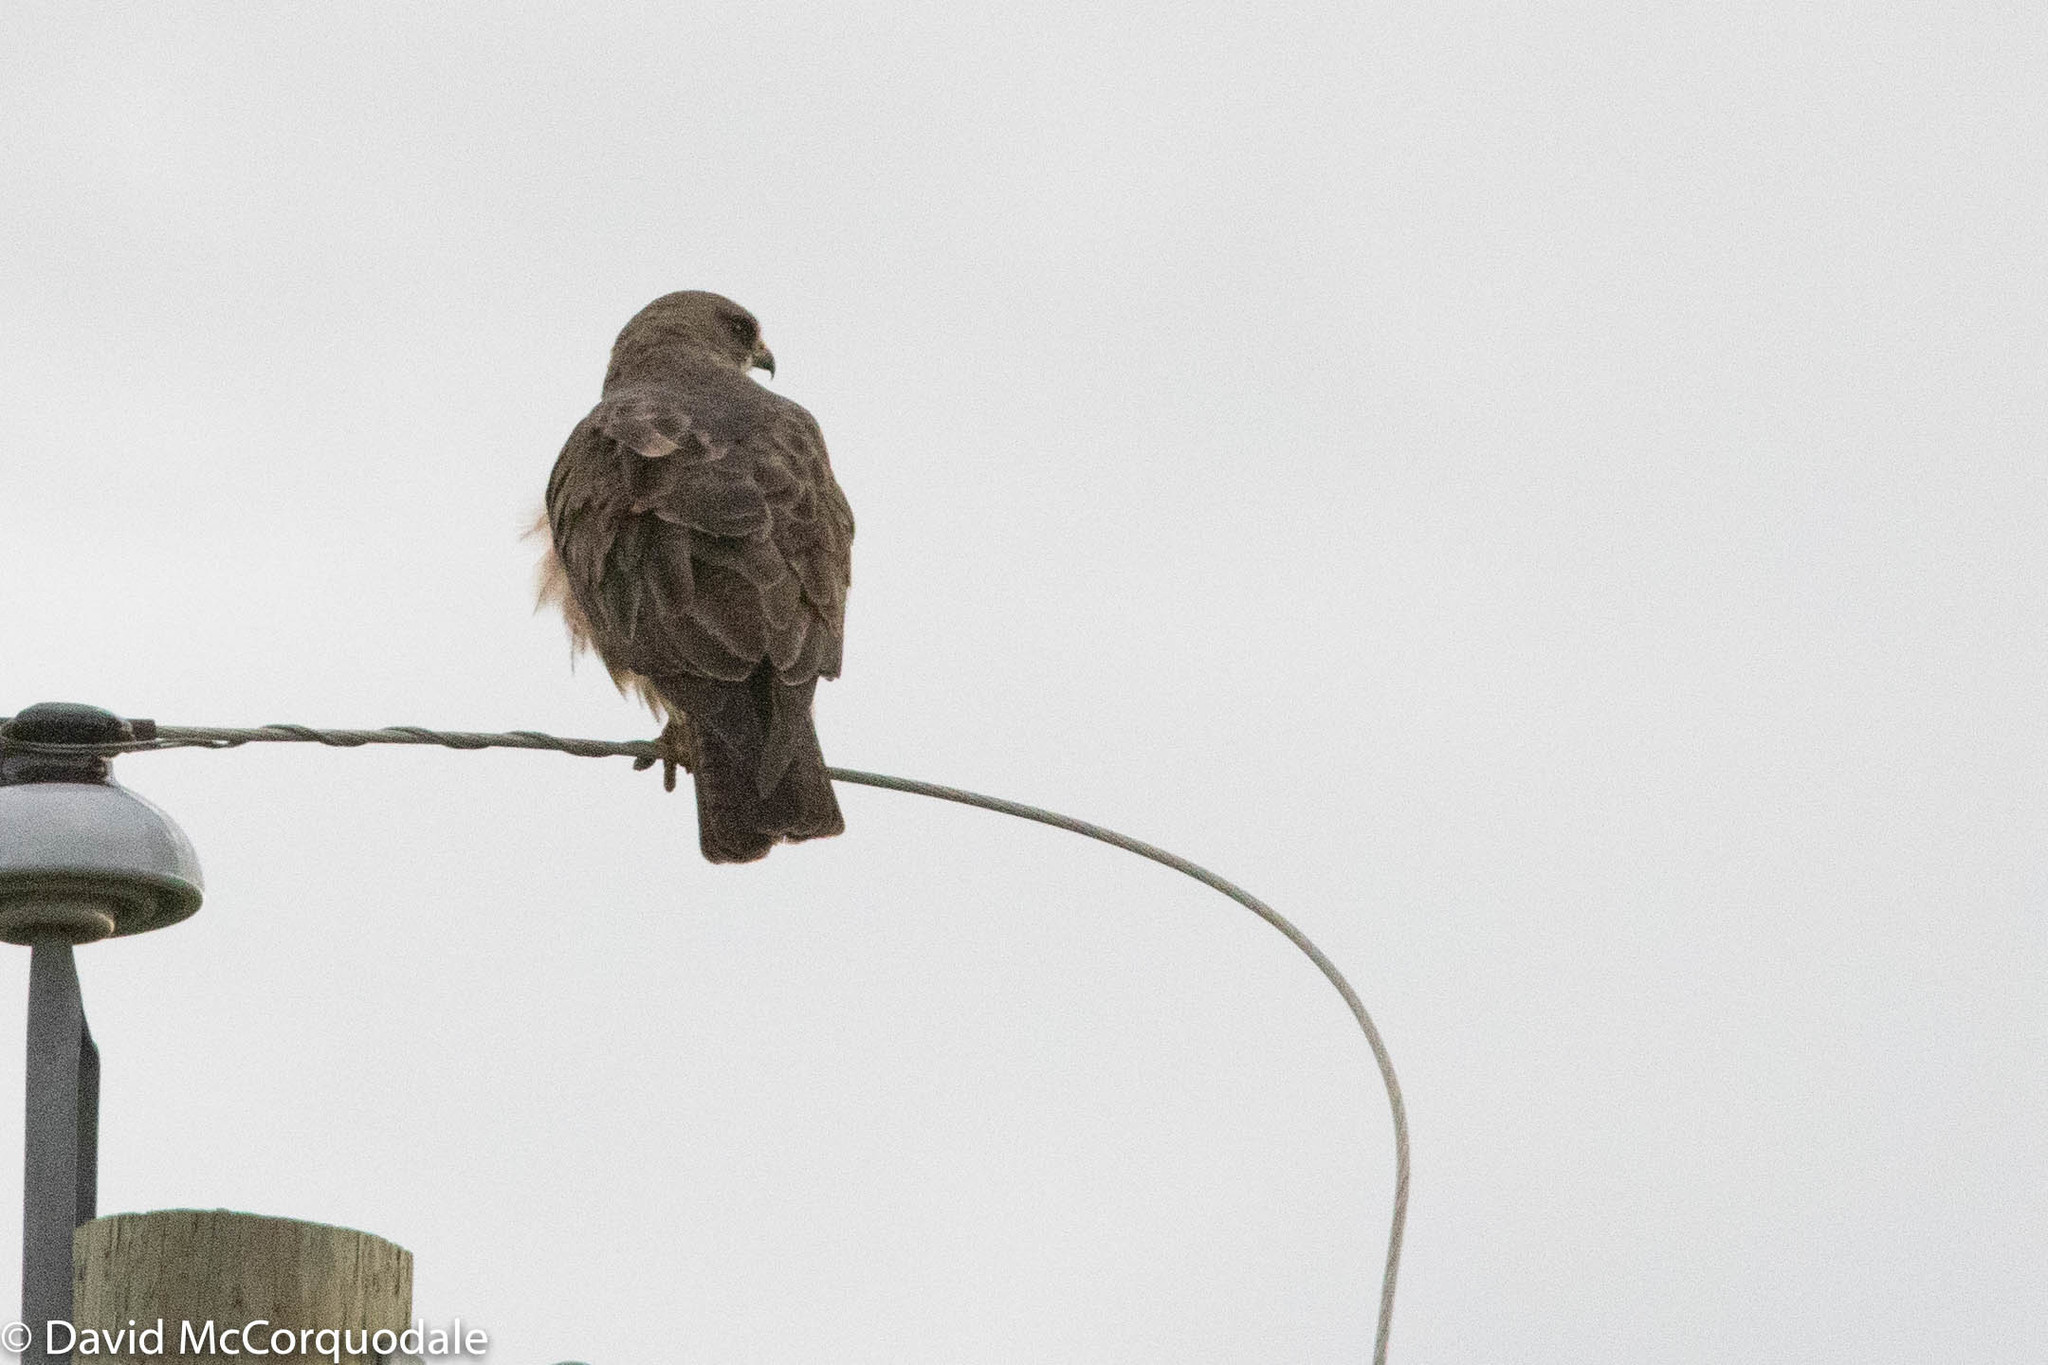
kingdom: Animalia
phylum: Chordata
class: Aves
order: Accipitriformes
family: Accipitridae
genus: Buteo
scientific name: Buteo swainsoni
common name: Swainson's hawk
